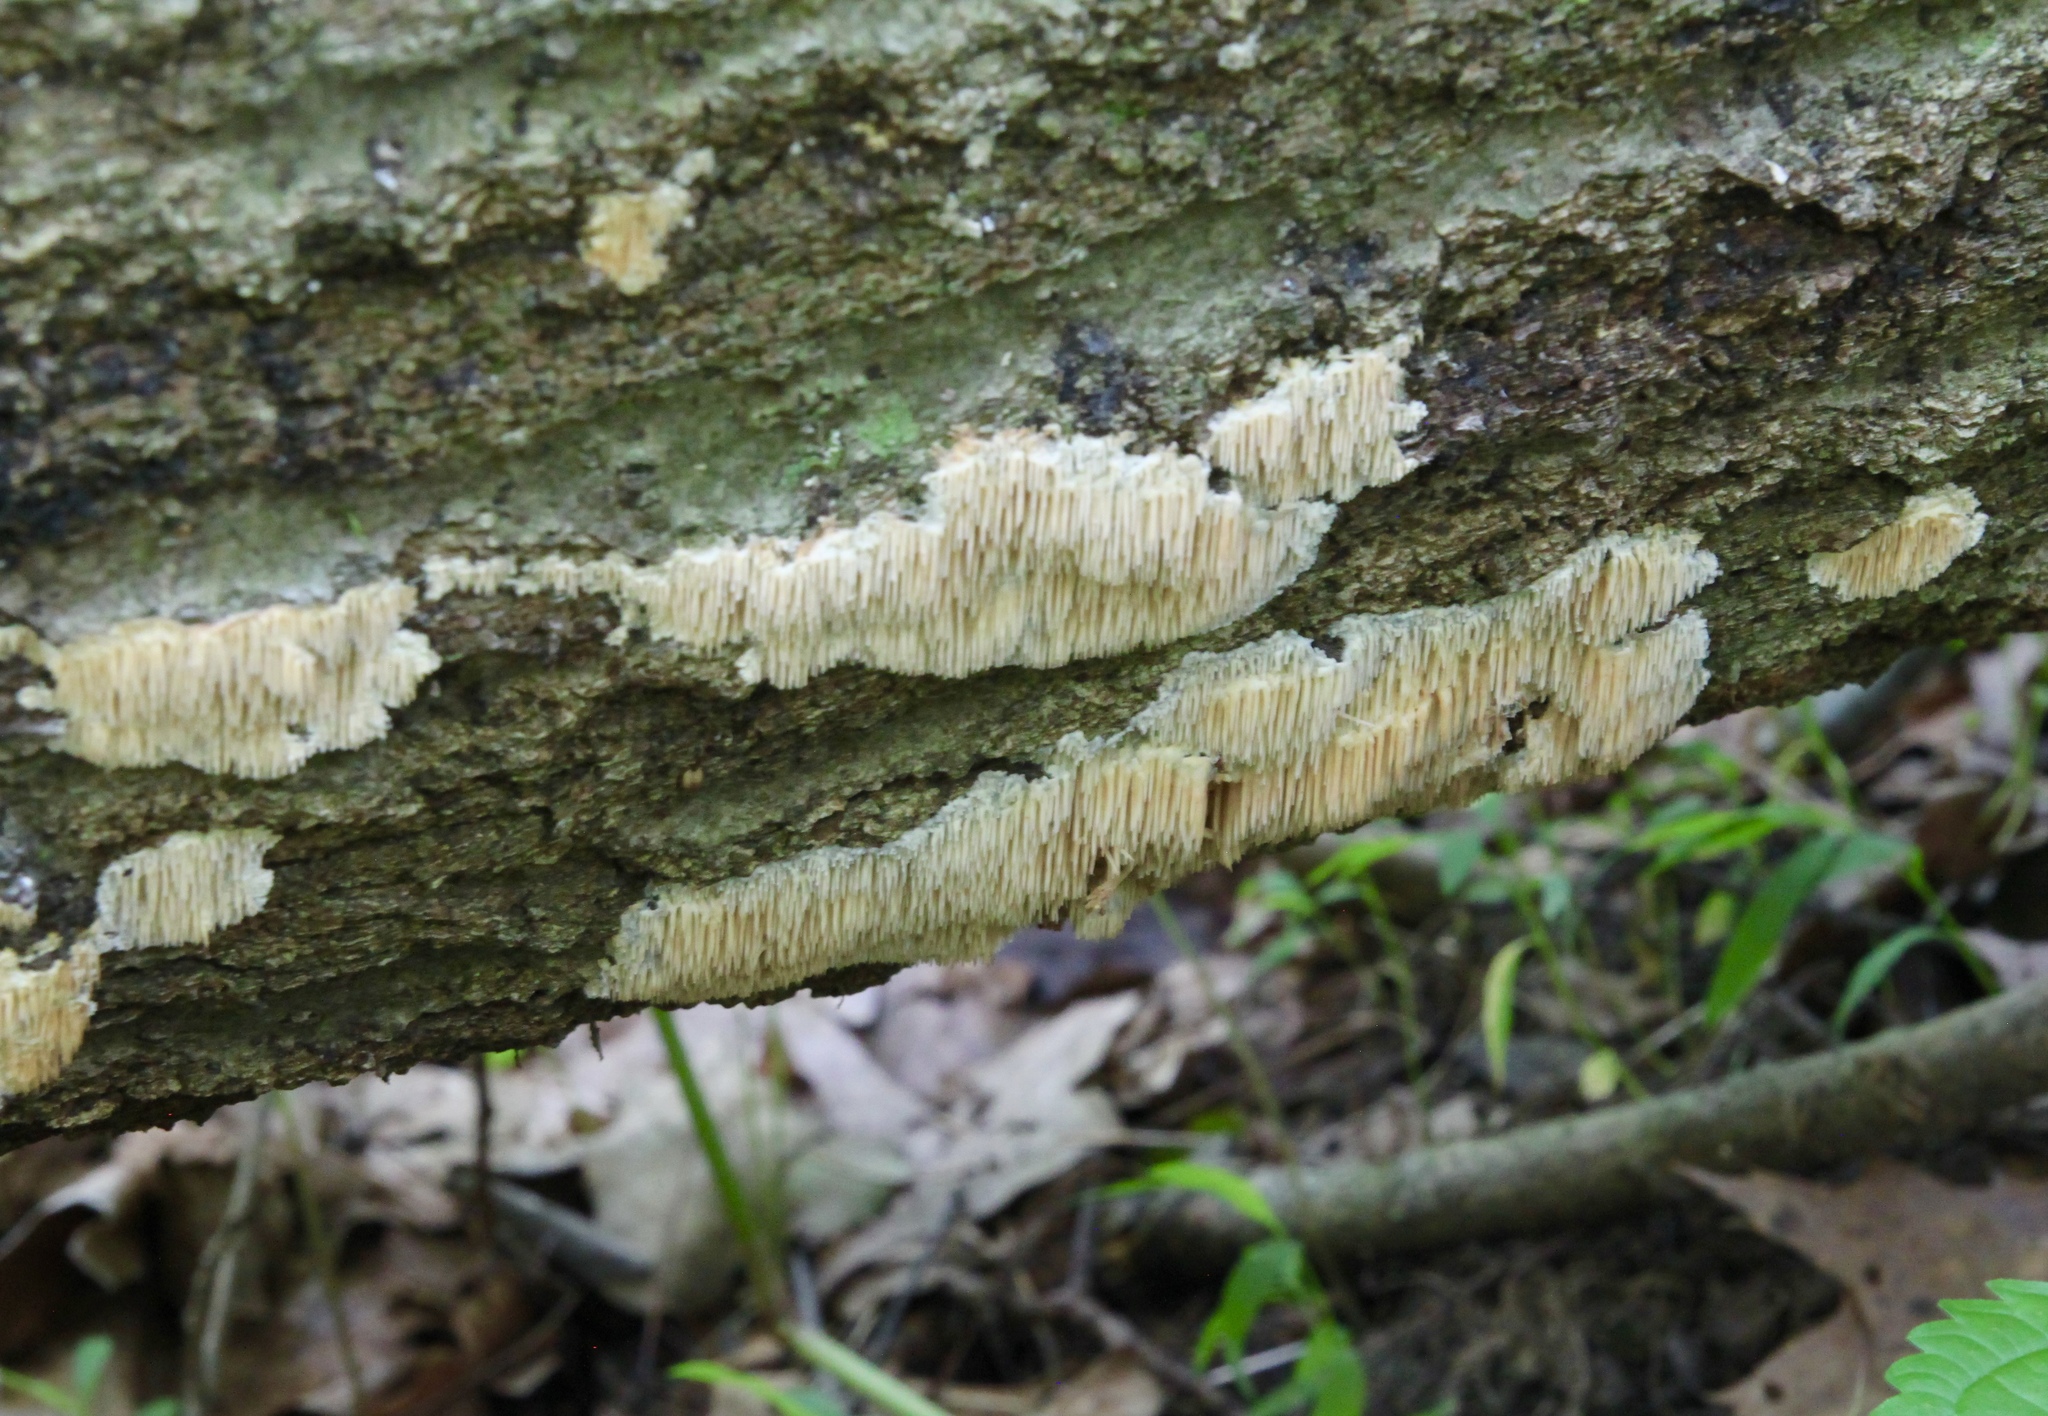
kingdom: Fungi
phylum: Basidiomycota
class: Agaricomycetes
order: Agaricales
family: Radulomycetaceae
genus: Radulomyces
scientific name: Radulomyces copelandii
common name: Asian beauty
